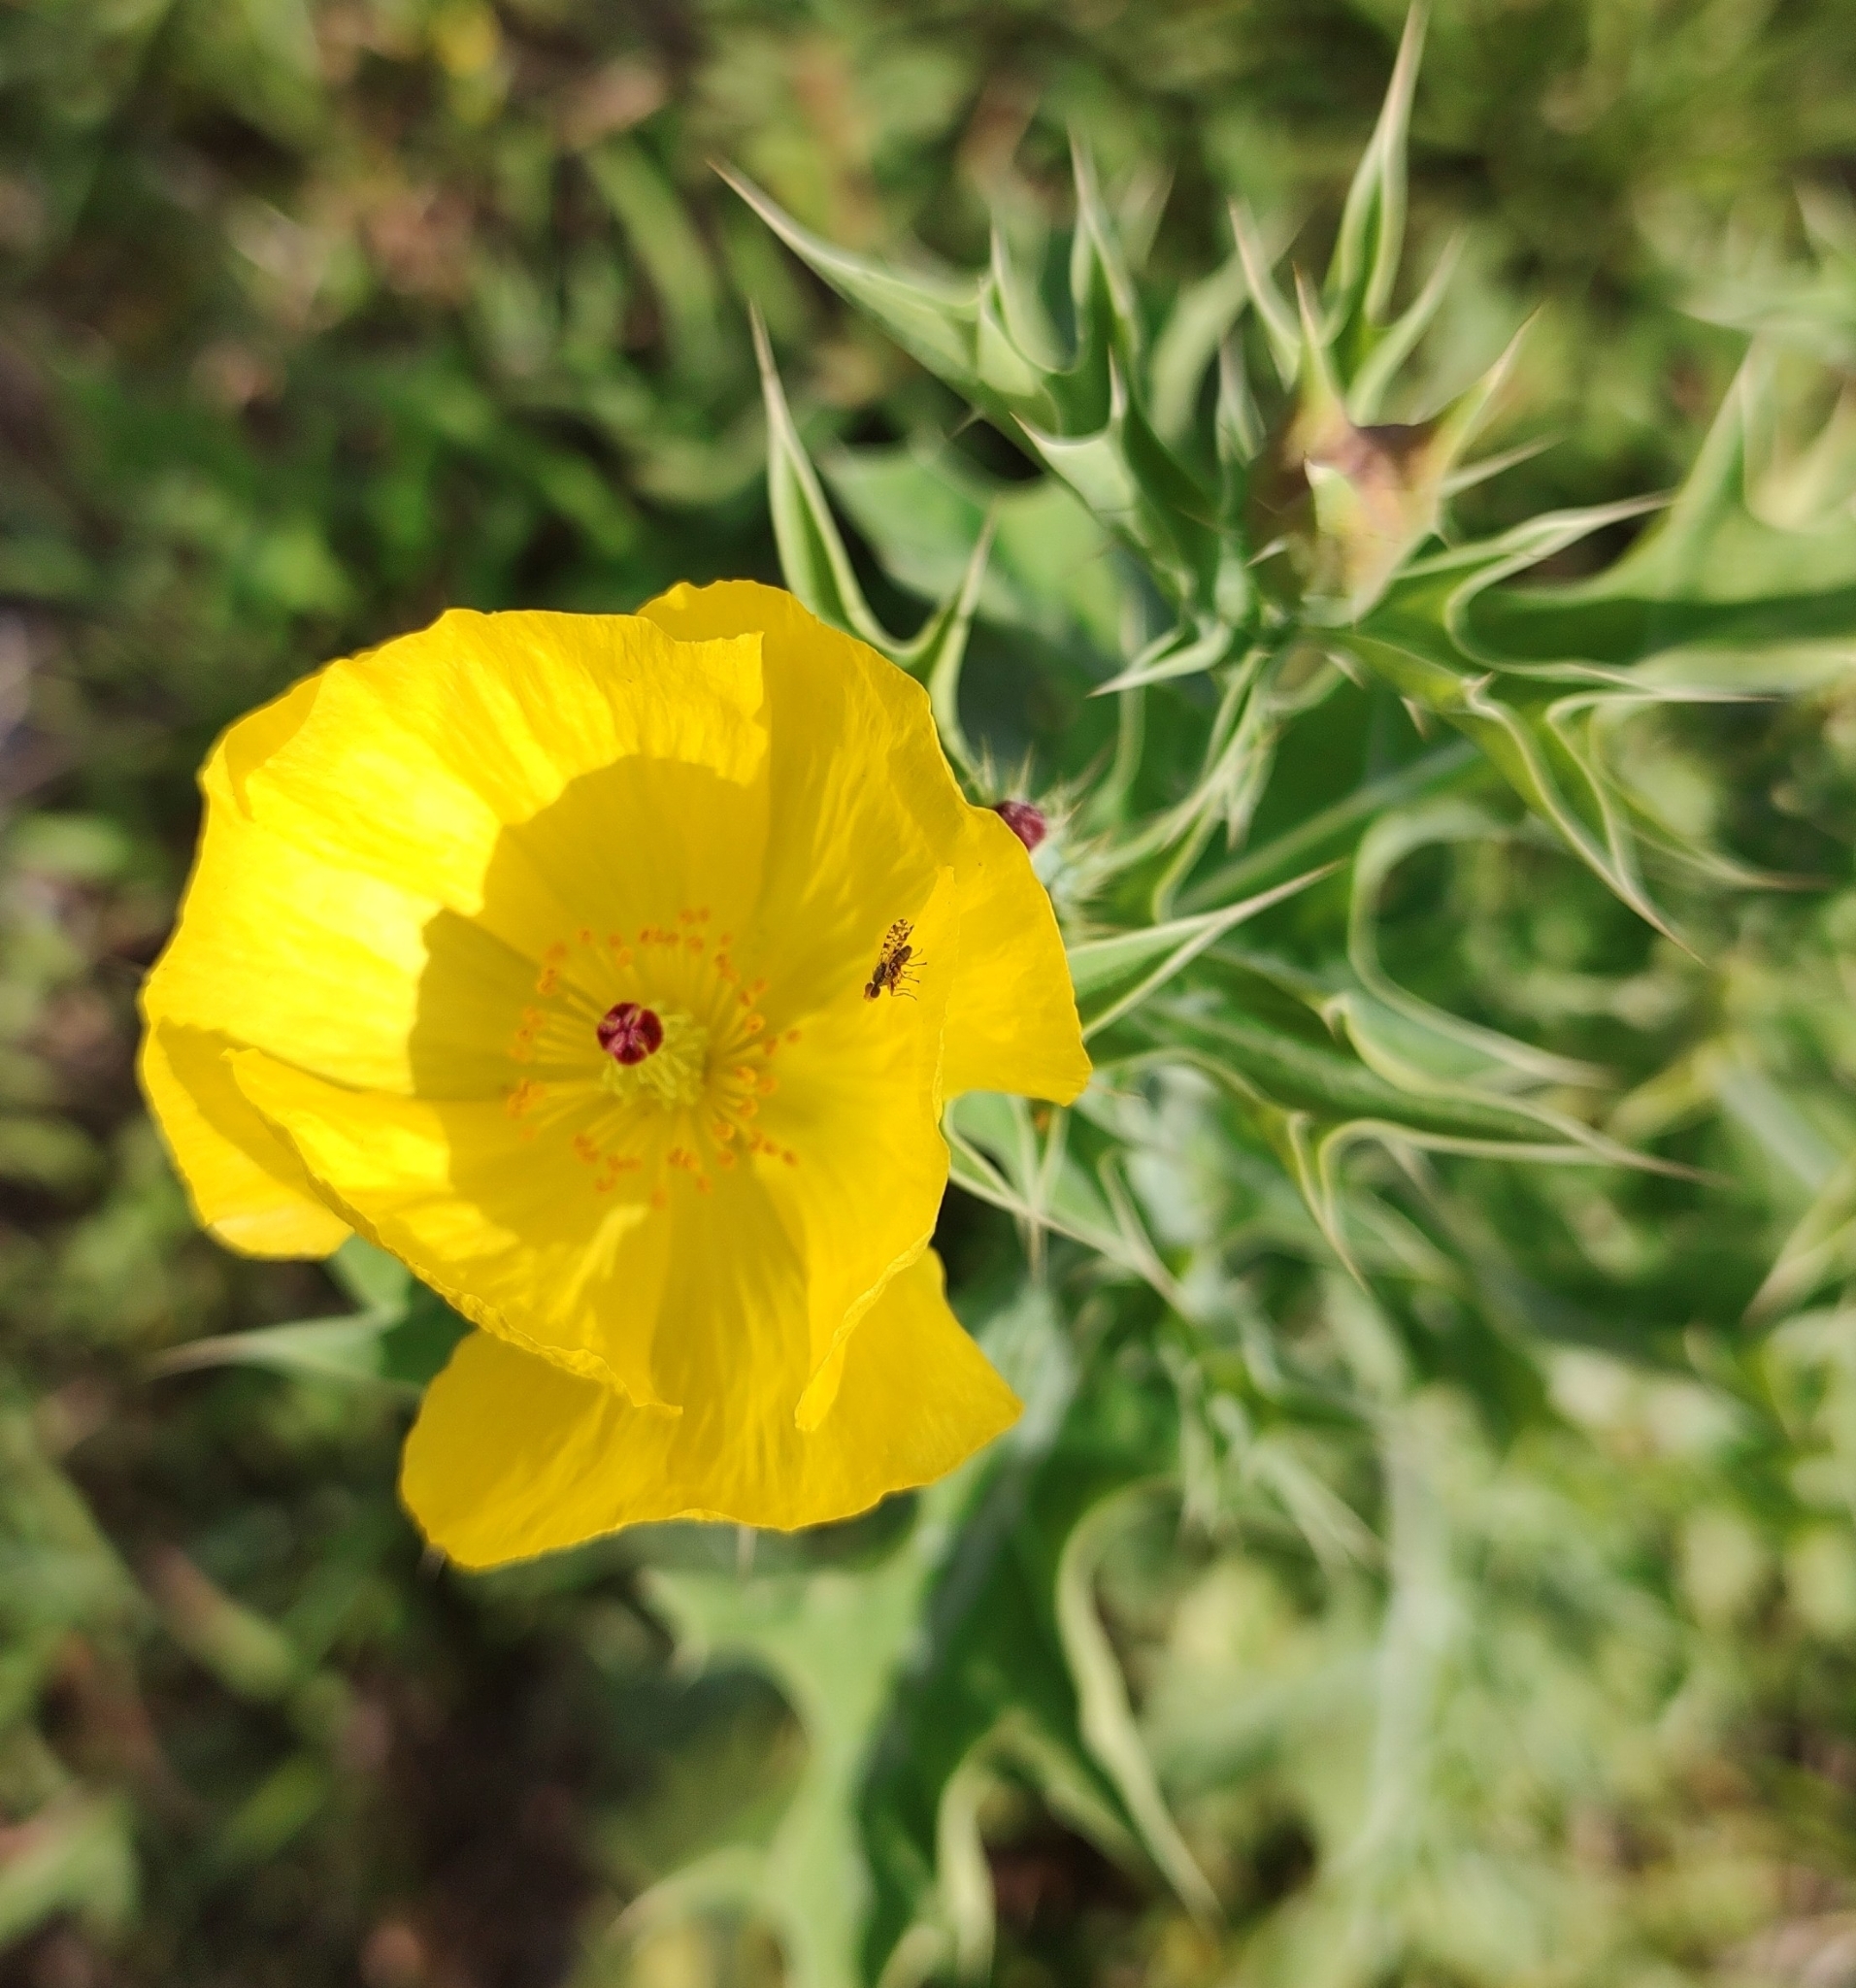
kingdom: Plantae
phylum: Tracheophyta
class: Magnoliopsida
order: Ranunculales
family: Papaveraceae
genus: Argemone
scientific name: Argemone mexicana
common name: Mexican poppy
